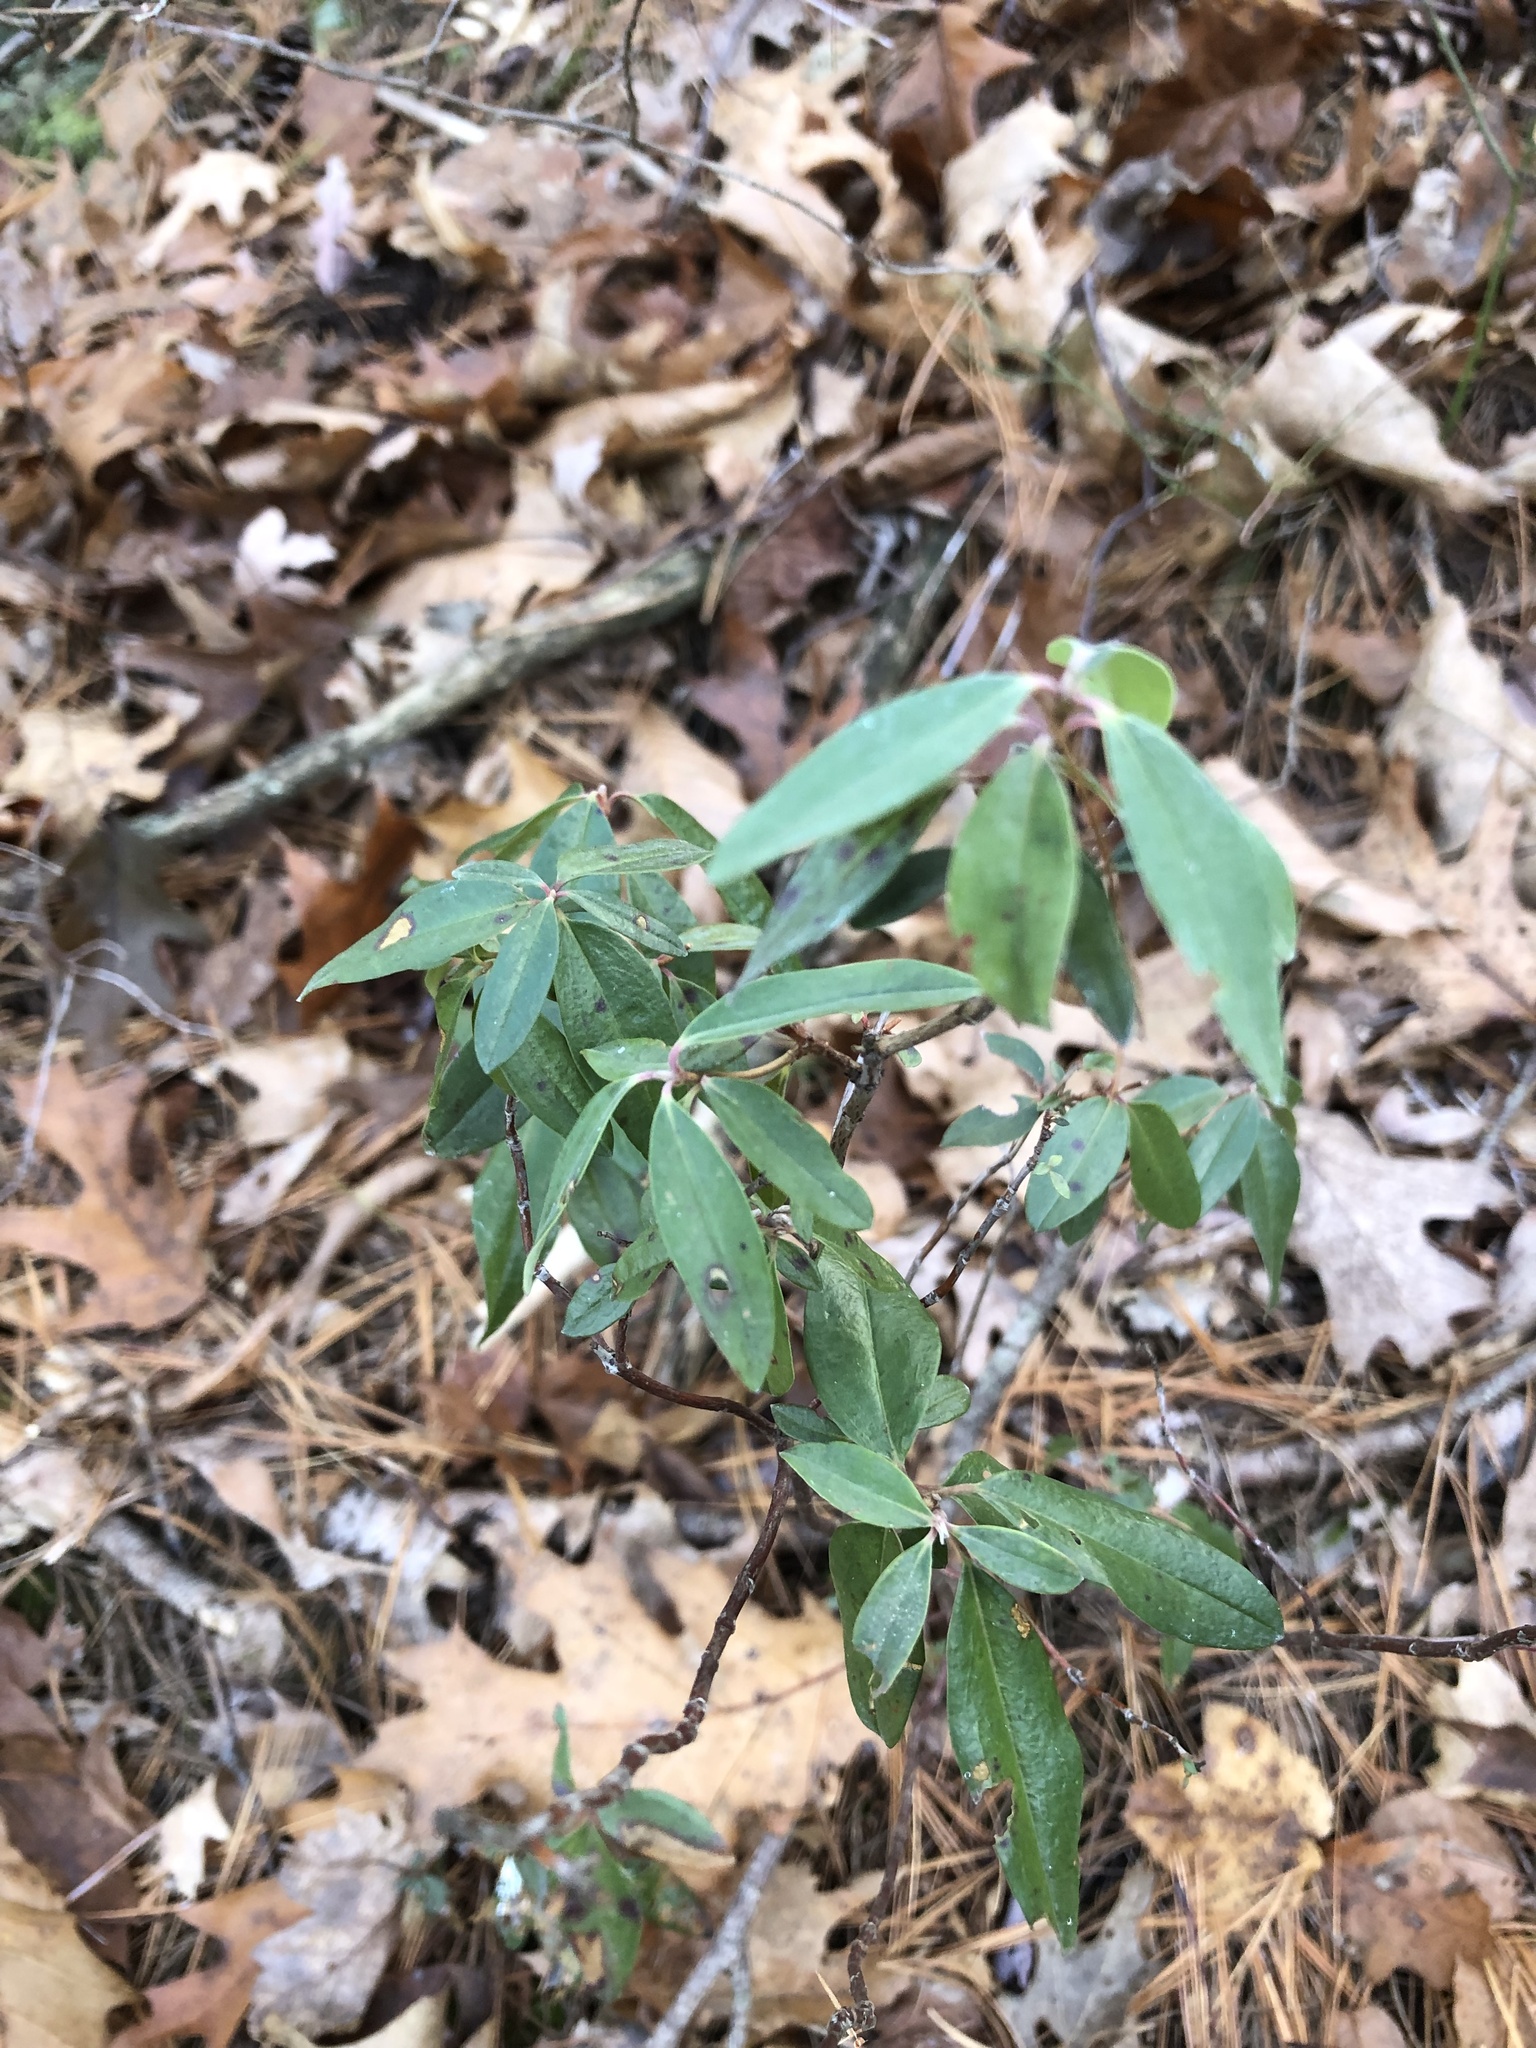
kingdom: Plantae
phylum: Tracheophyta
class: Magnoliopsida
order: Ericales
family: Ericaceae
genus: Kalmia
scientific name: Kalmia angustifolia
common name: Sheep-laurel
